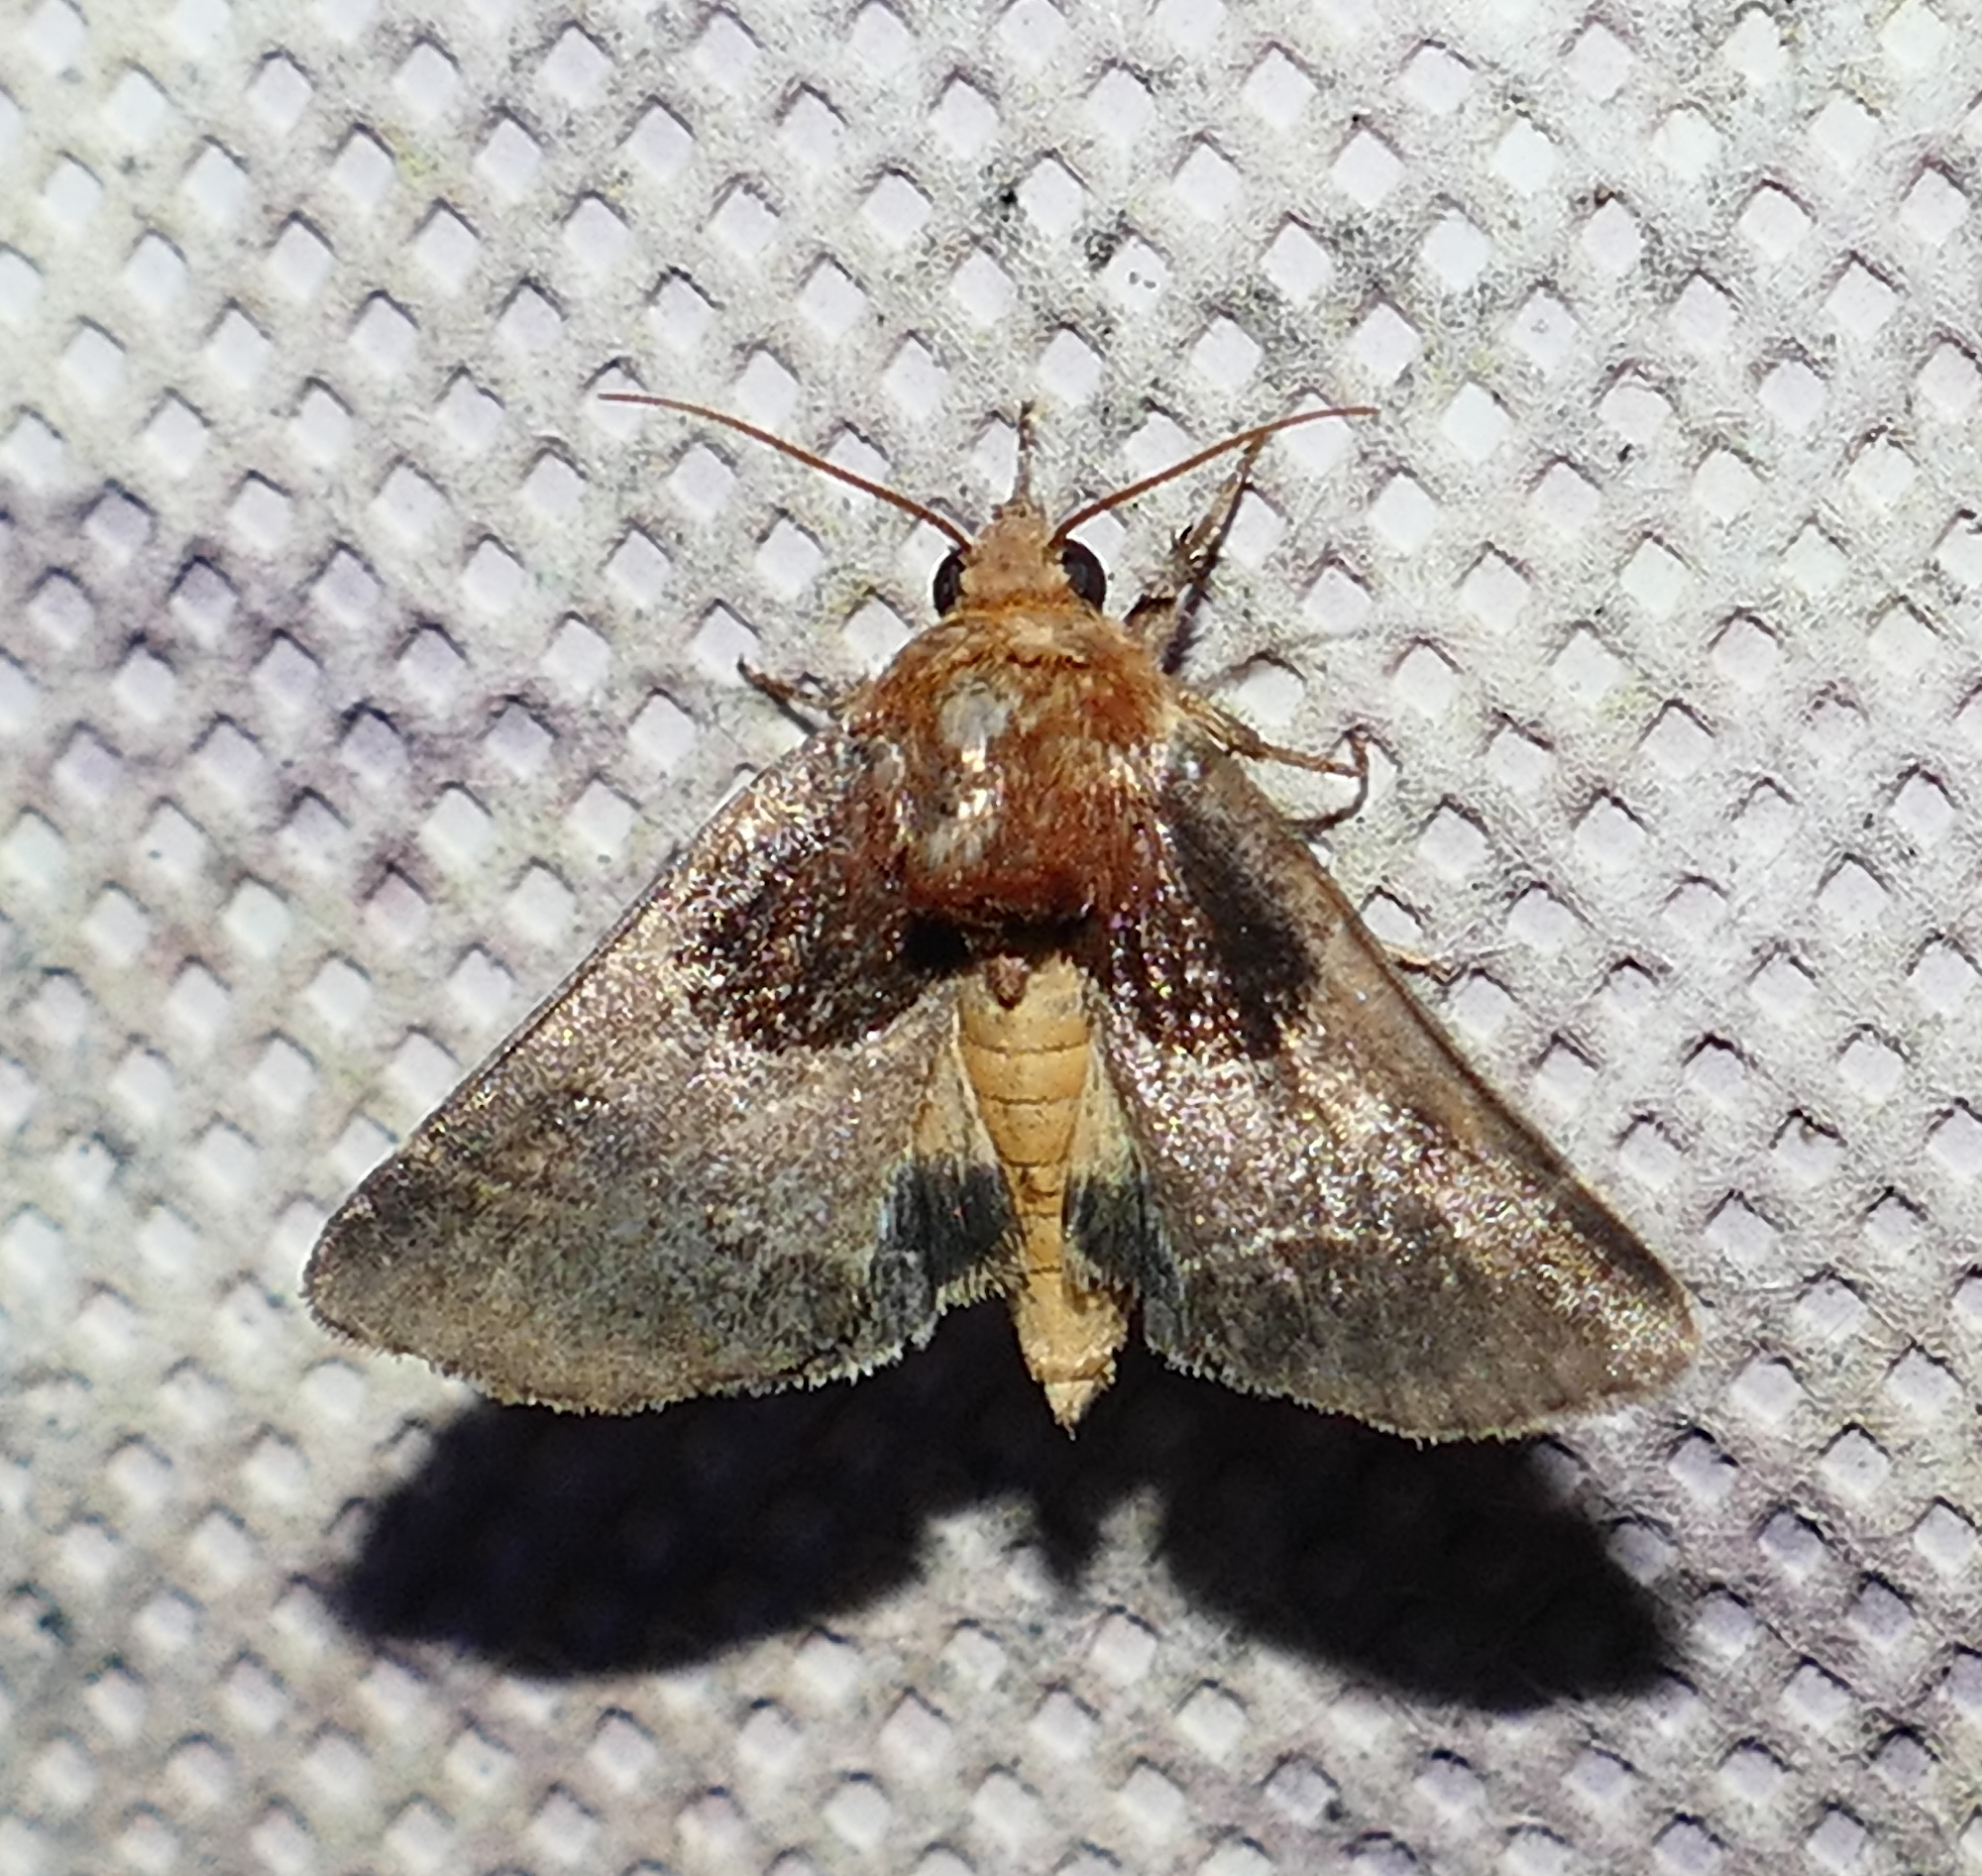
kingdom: Animalia
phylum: Arthropoda
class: Insecta
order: Lepidoptera
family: Noctuidae
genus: Schinia
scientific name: Schinia arcigera
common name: Arcigera flower moth
